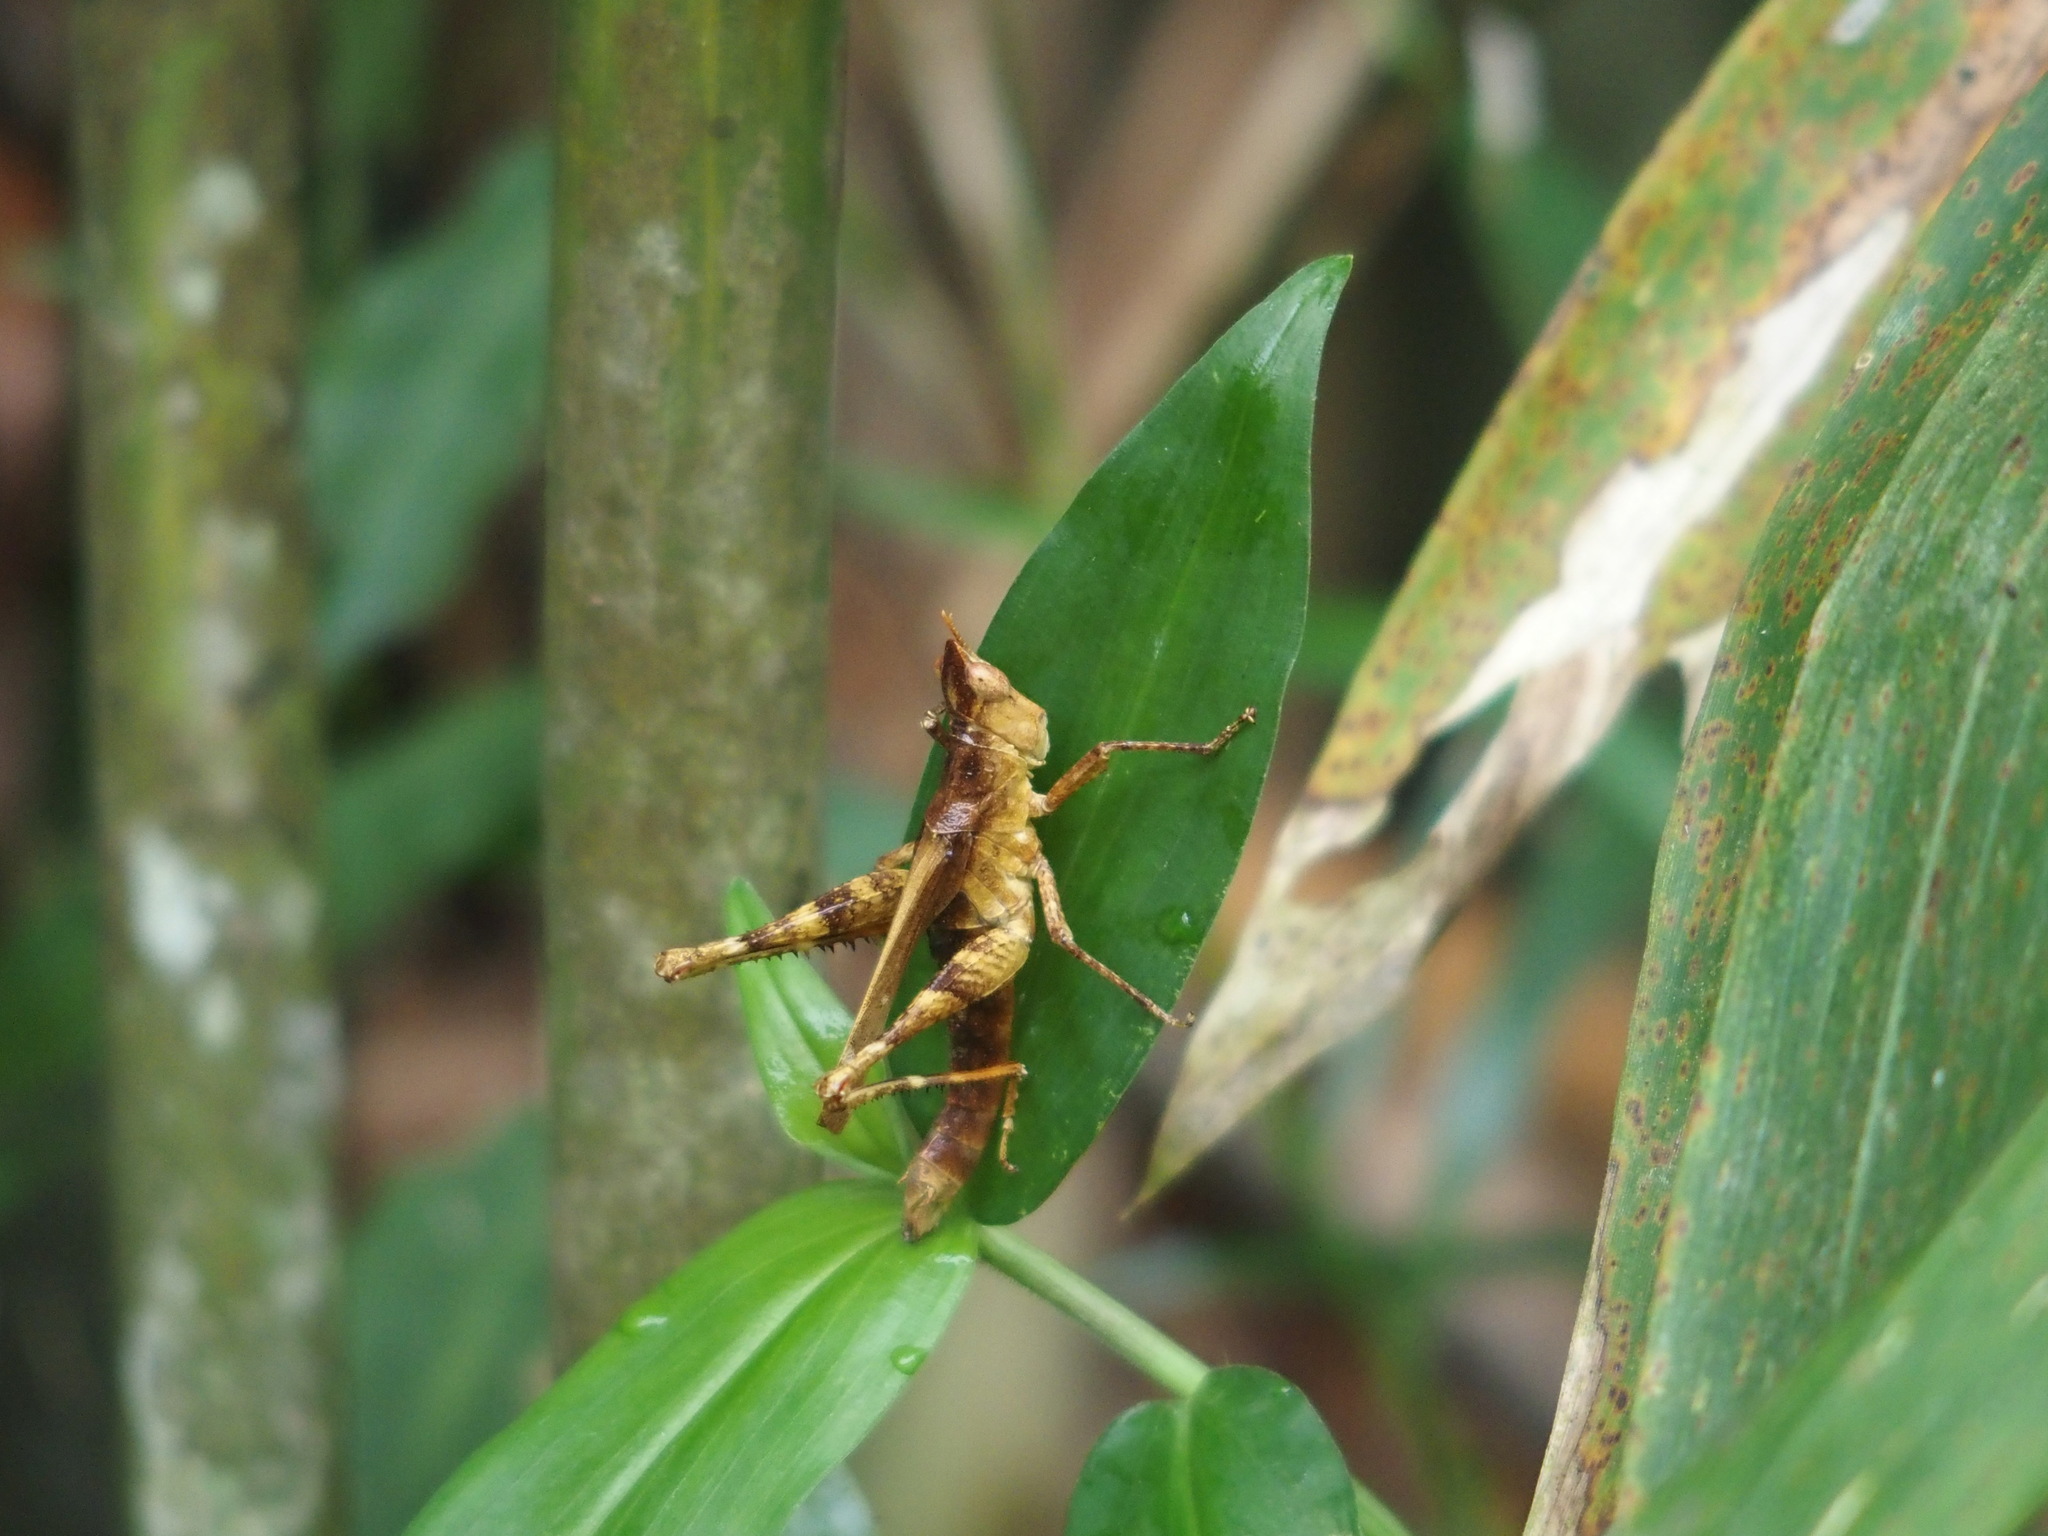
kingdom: Animalia
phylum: Arthropoda
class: Insecta
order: Orthoptera
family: Chorotypidae
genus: Erianthella
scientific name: Erianthella formosana
